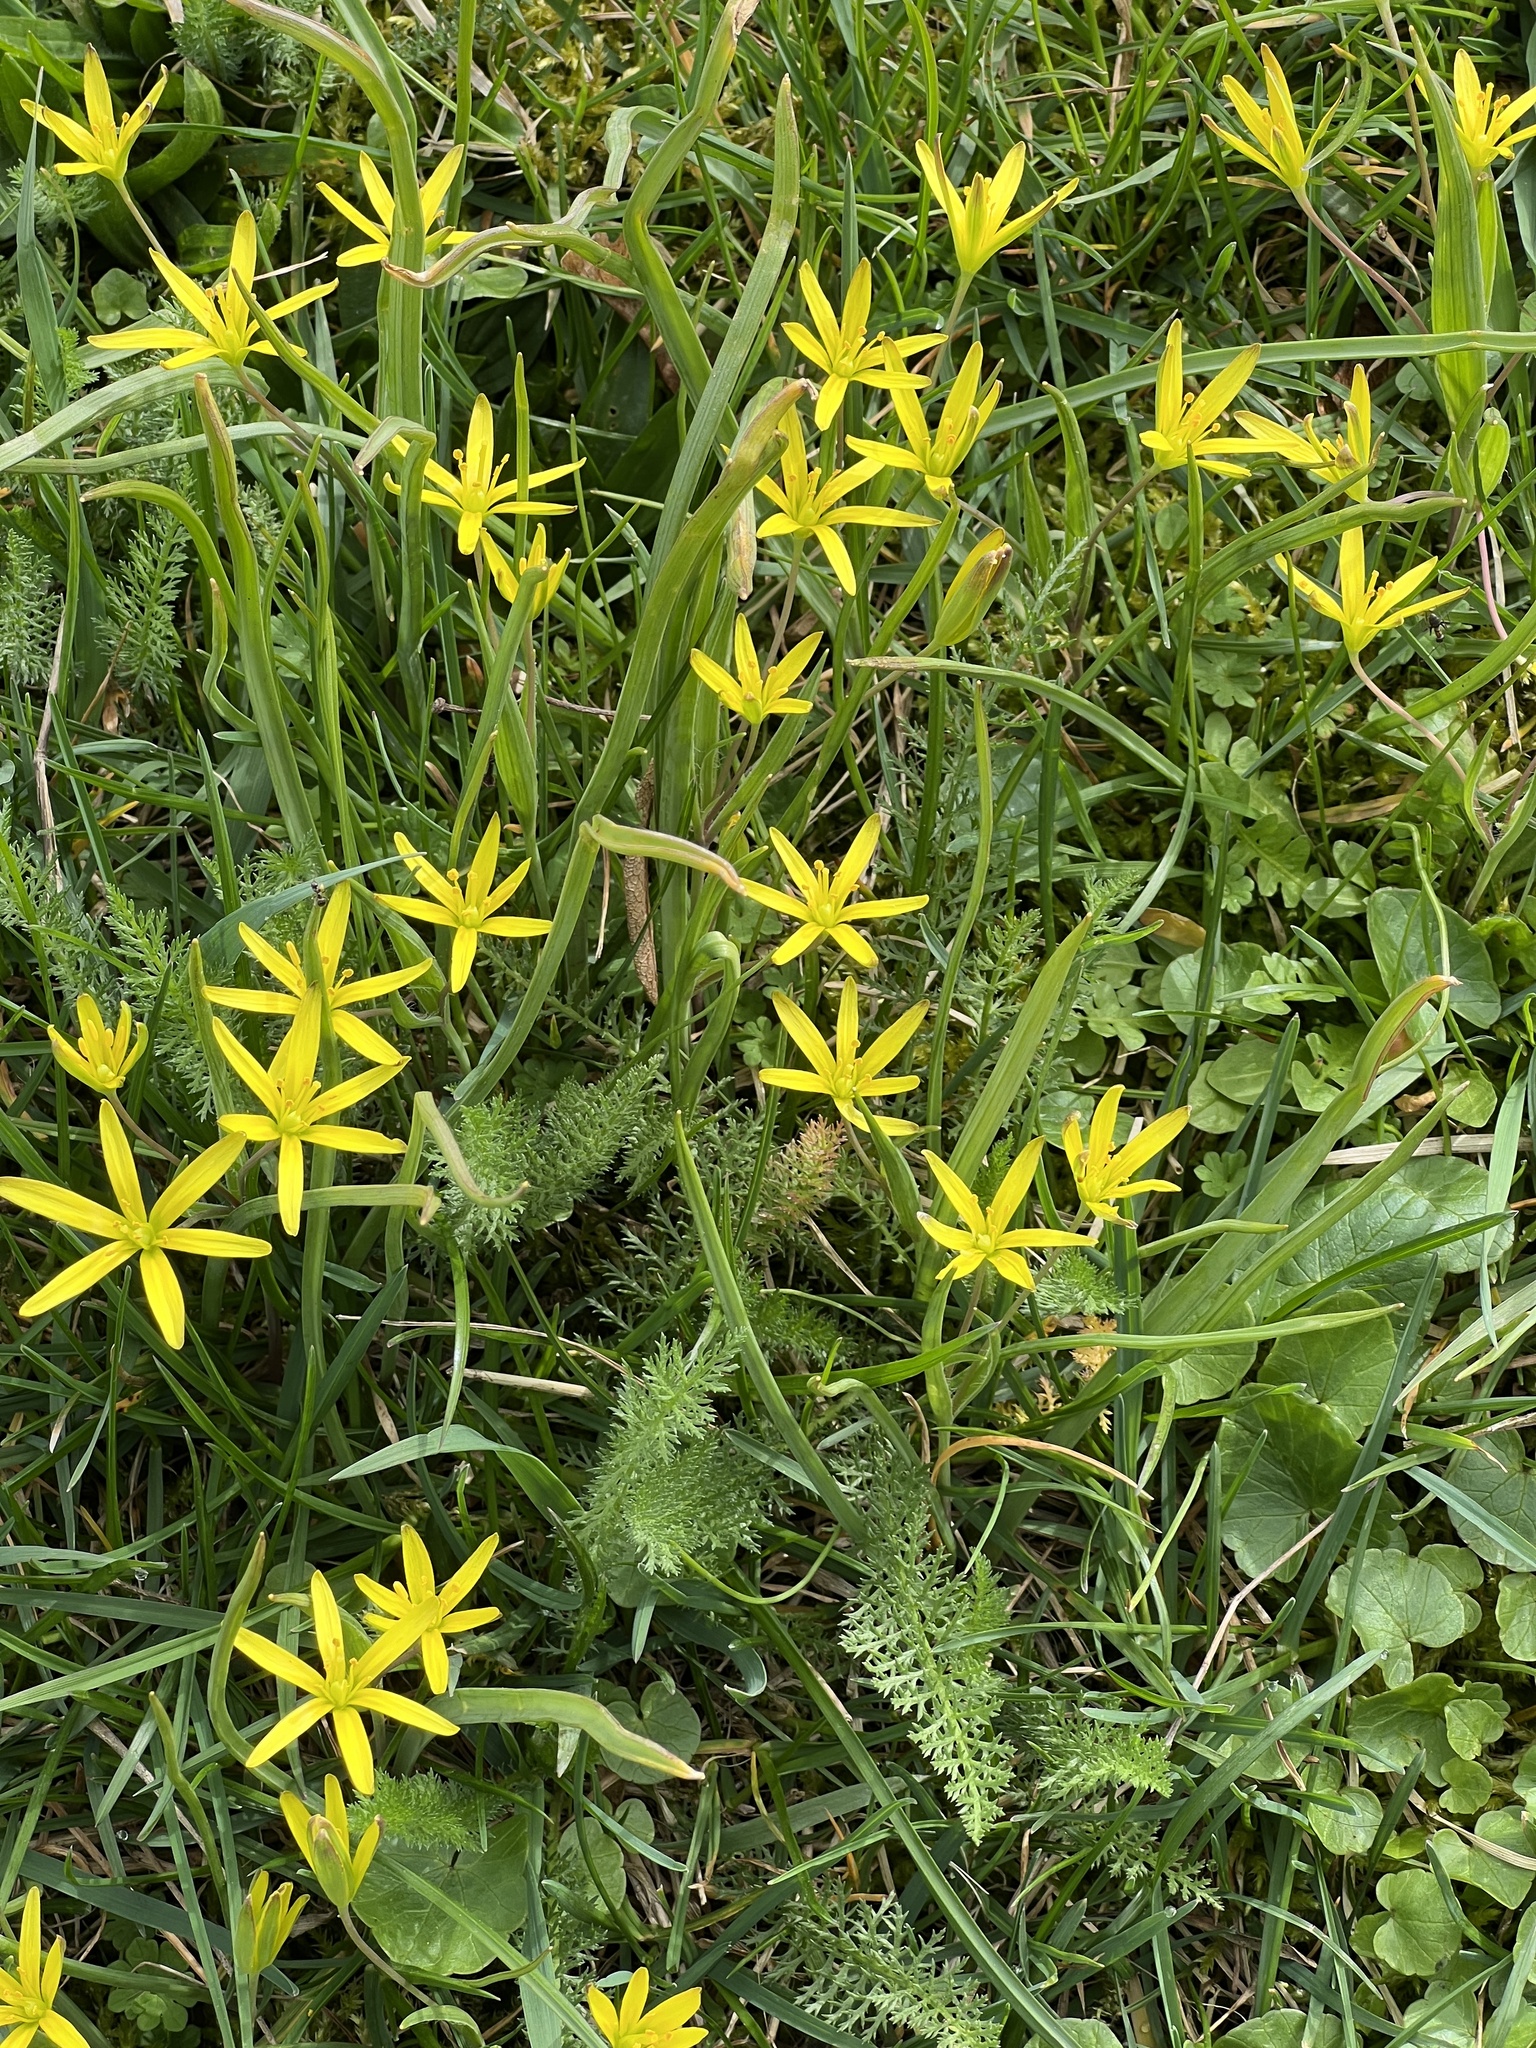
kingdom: Plantae
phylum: Tracheophyta
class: Liliopsida
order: Liliales
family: Liliaceae
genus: Gagea
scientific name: Gagea pratensis
